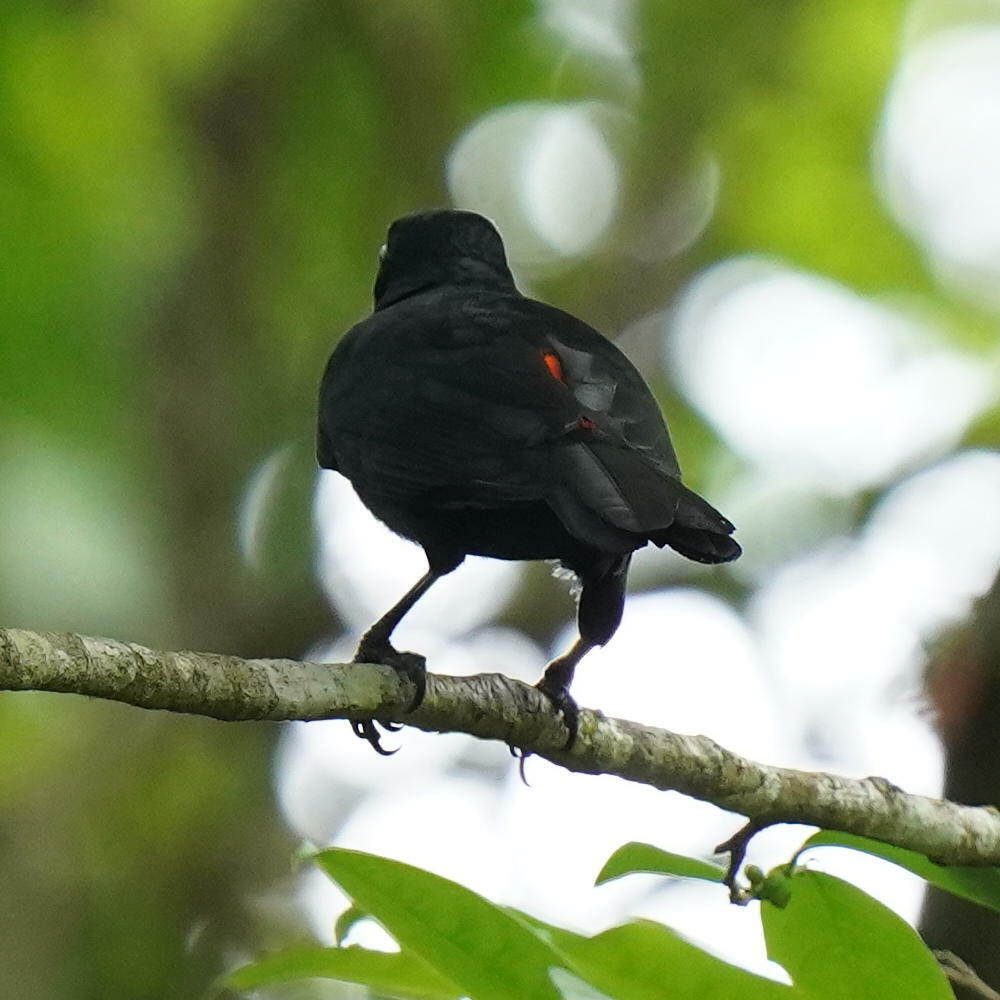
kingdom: Animalia
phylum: Chordata
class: Aves
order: Passeriformes
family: Icteridae
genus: Cacicus
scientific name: Cacicus uropygialis
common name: Scarlet-rumped cacique
